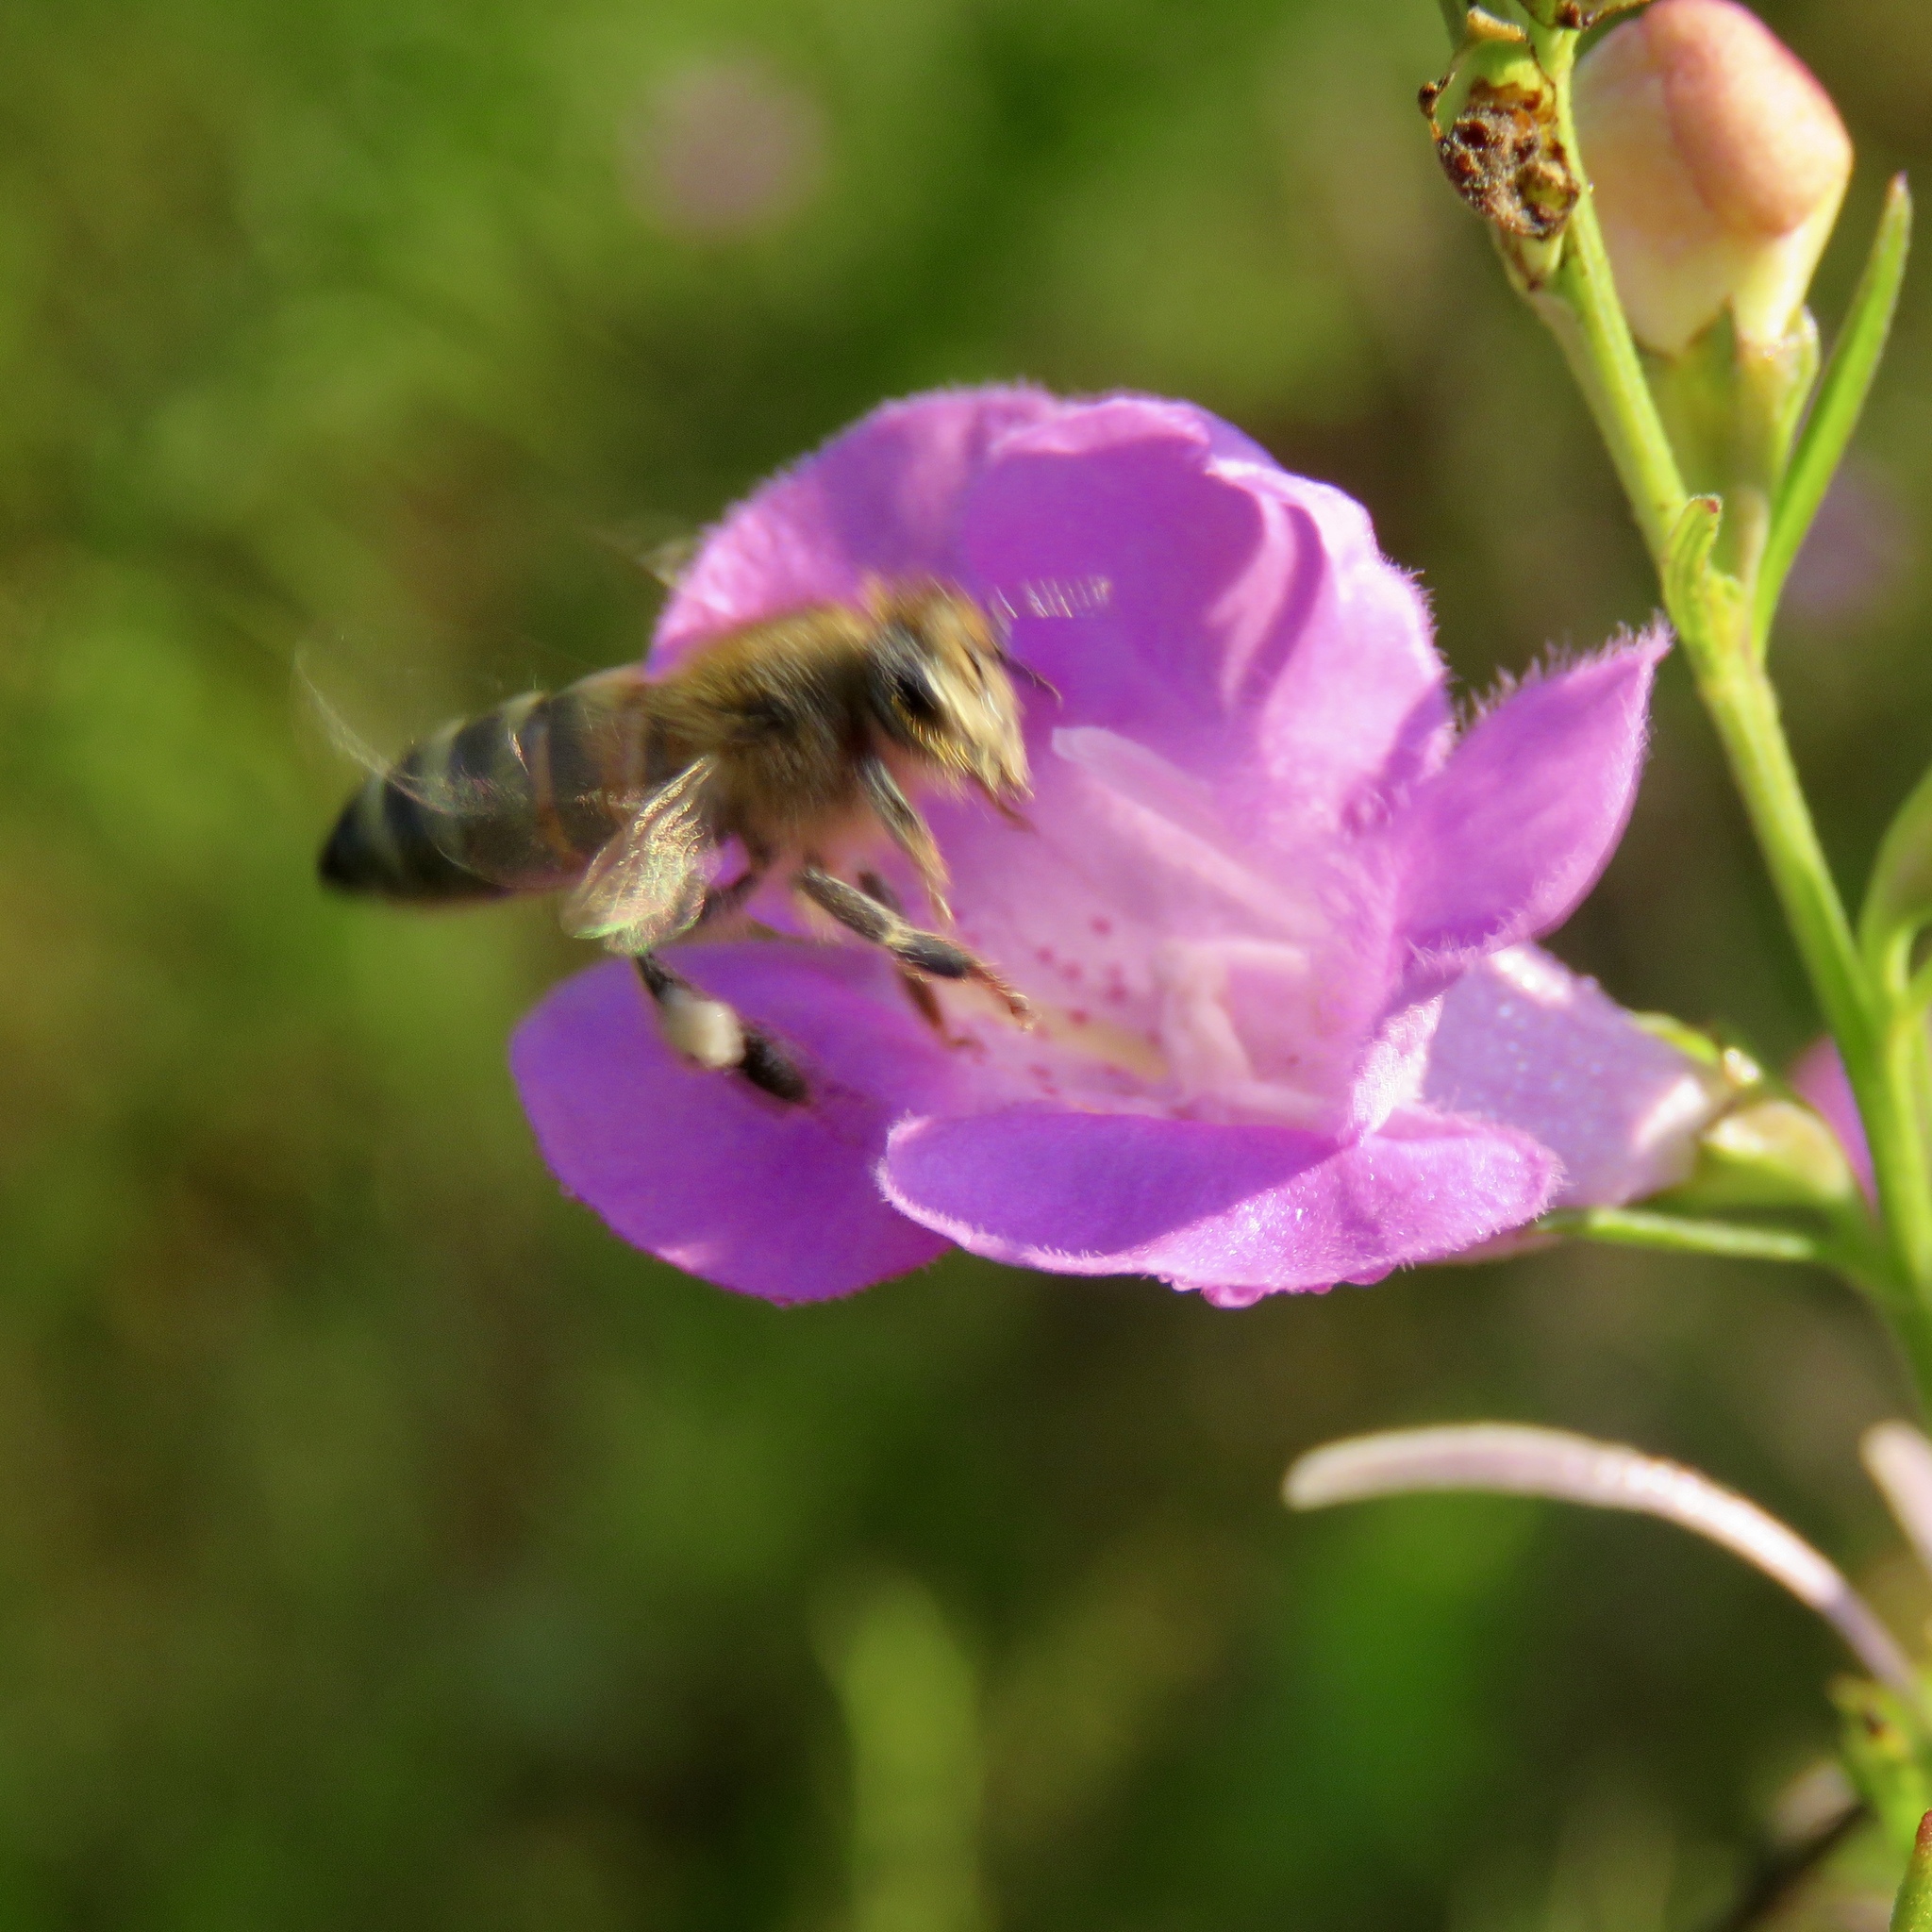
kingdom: Animalia
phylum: Arthropoda
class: Insecta
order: Hymenoptera
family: Apidae
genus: Apis
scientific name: Apis mellifera
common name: Honey bee
